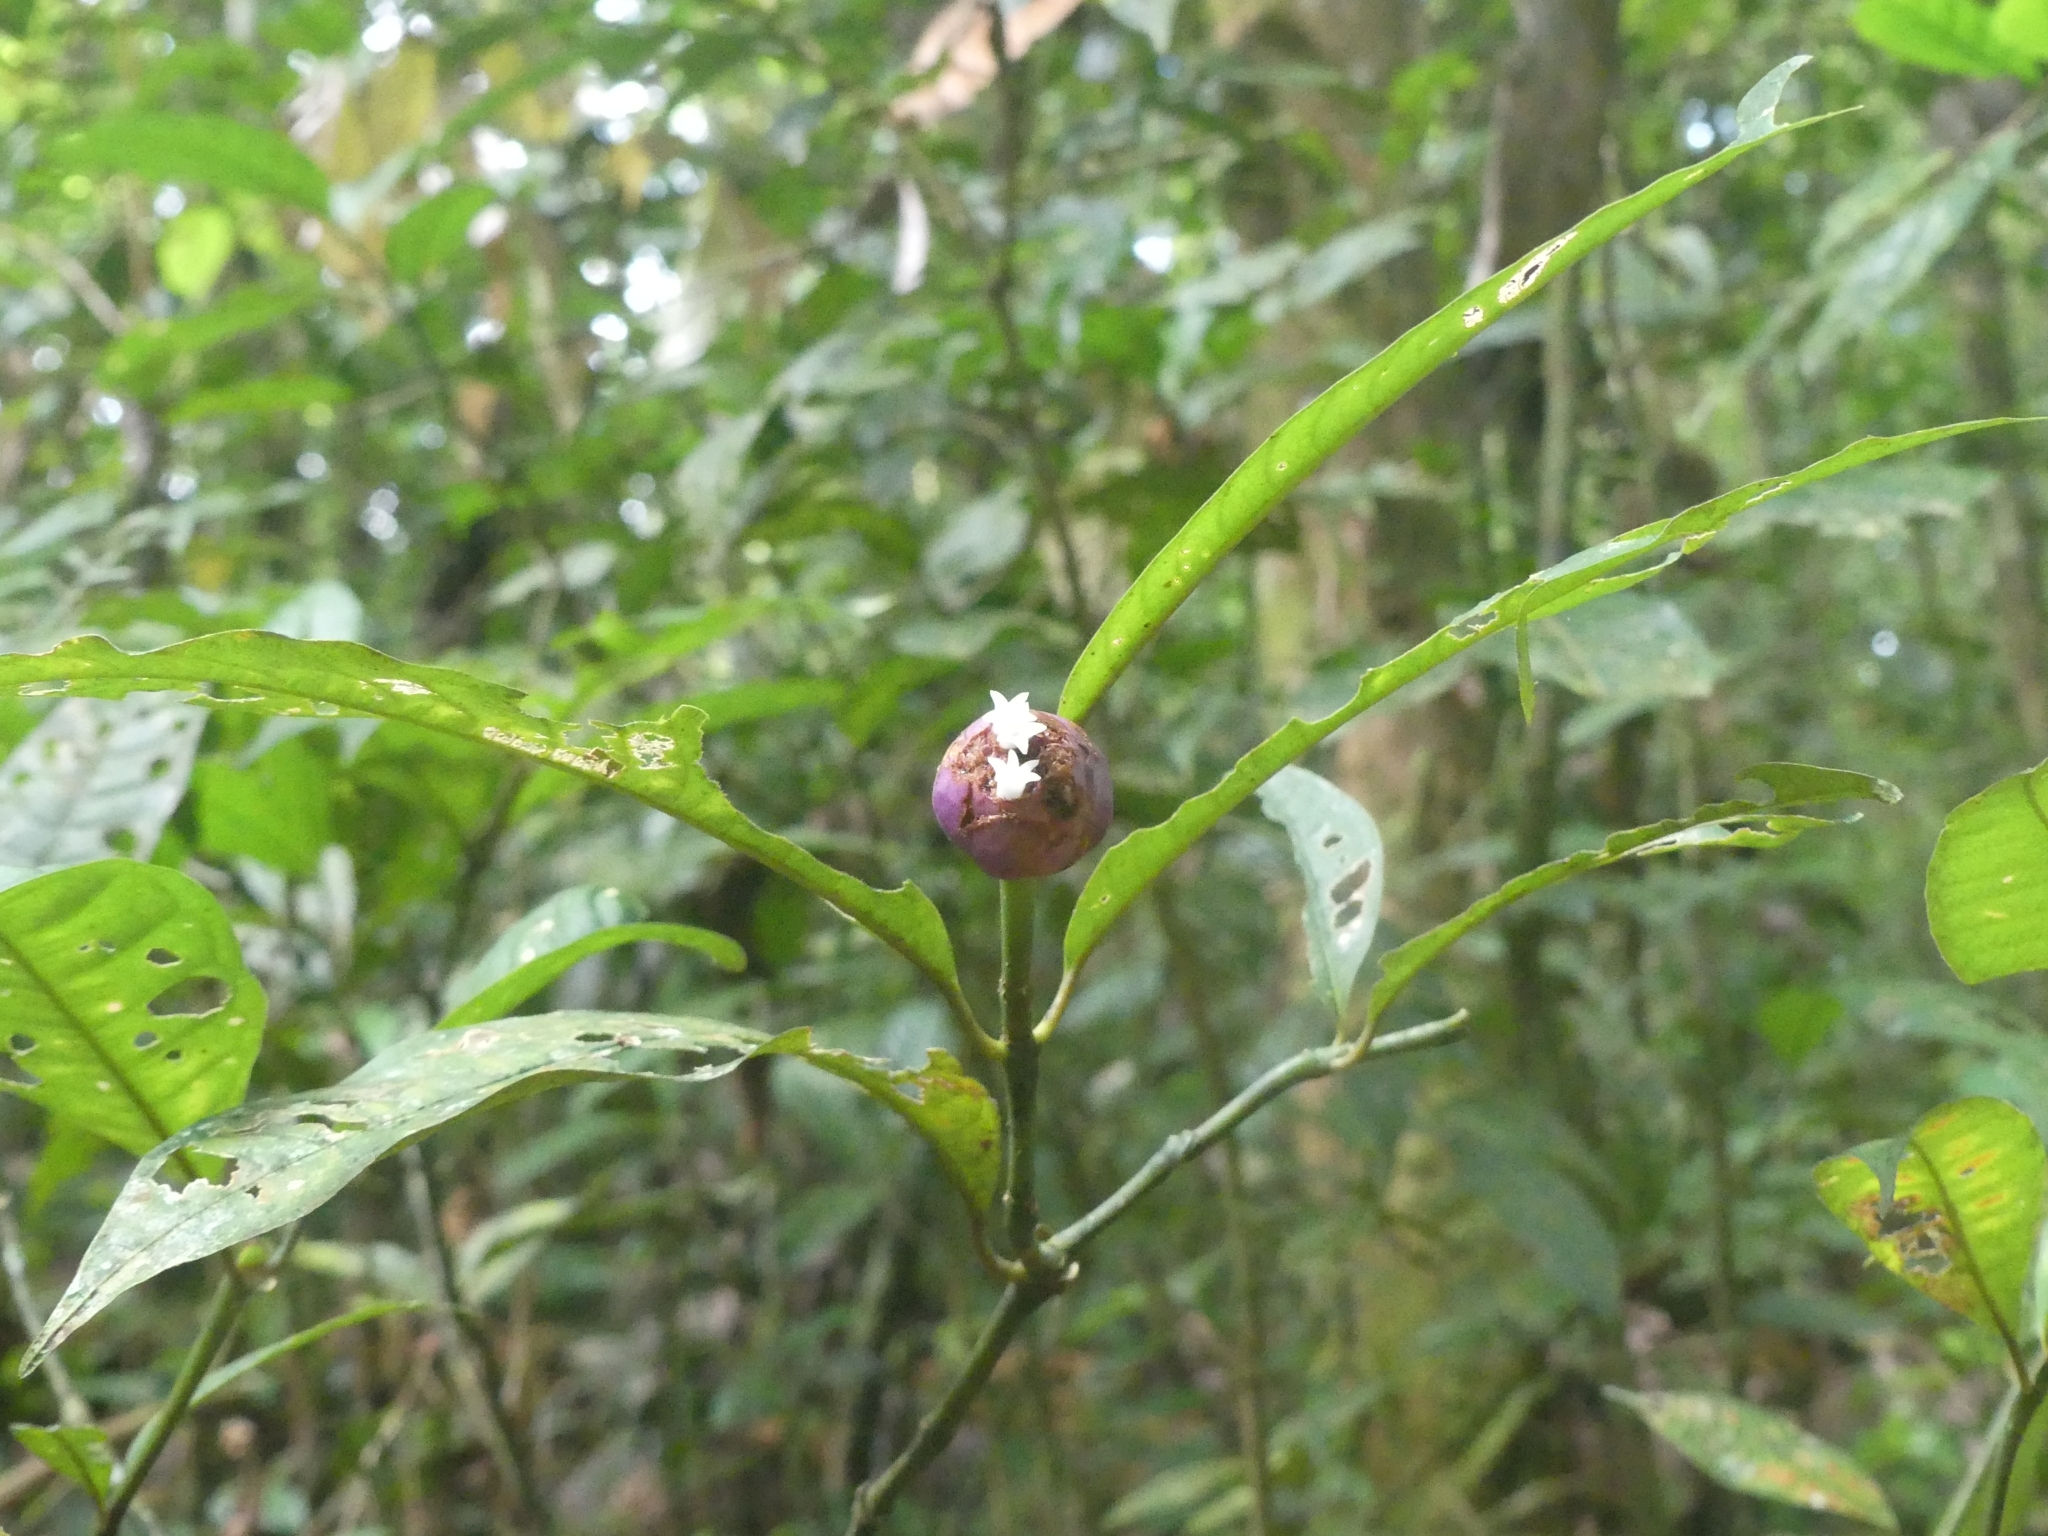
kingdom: Plantae
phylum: Tracheophyta
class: Magnoliopsida
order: Gentianales
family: Rubiaceae
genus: Palicourea
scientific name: Palicourea apoda
